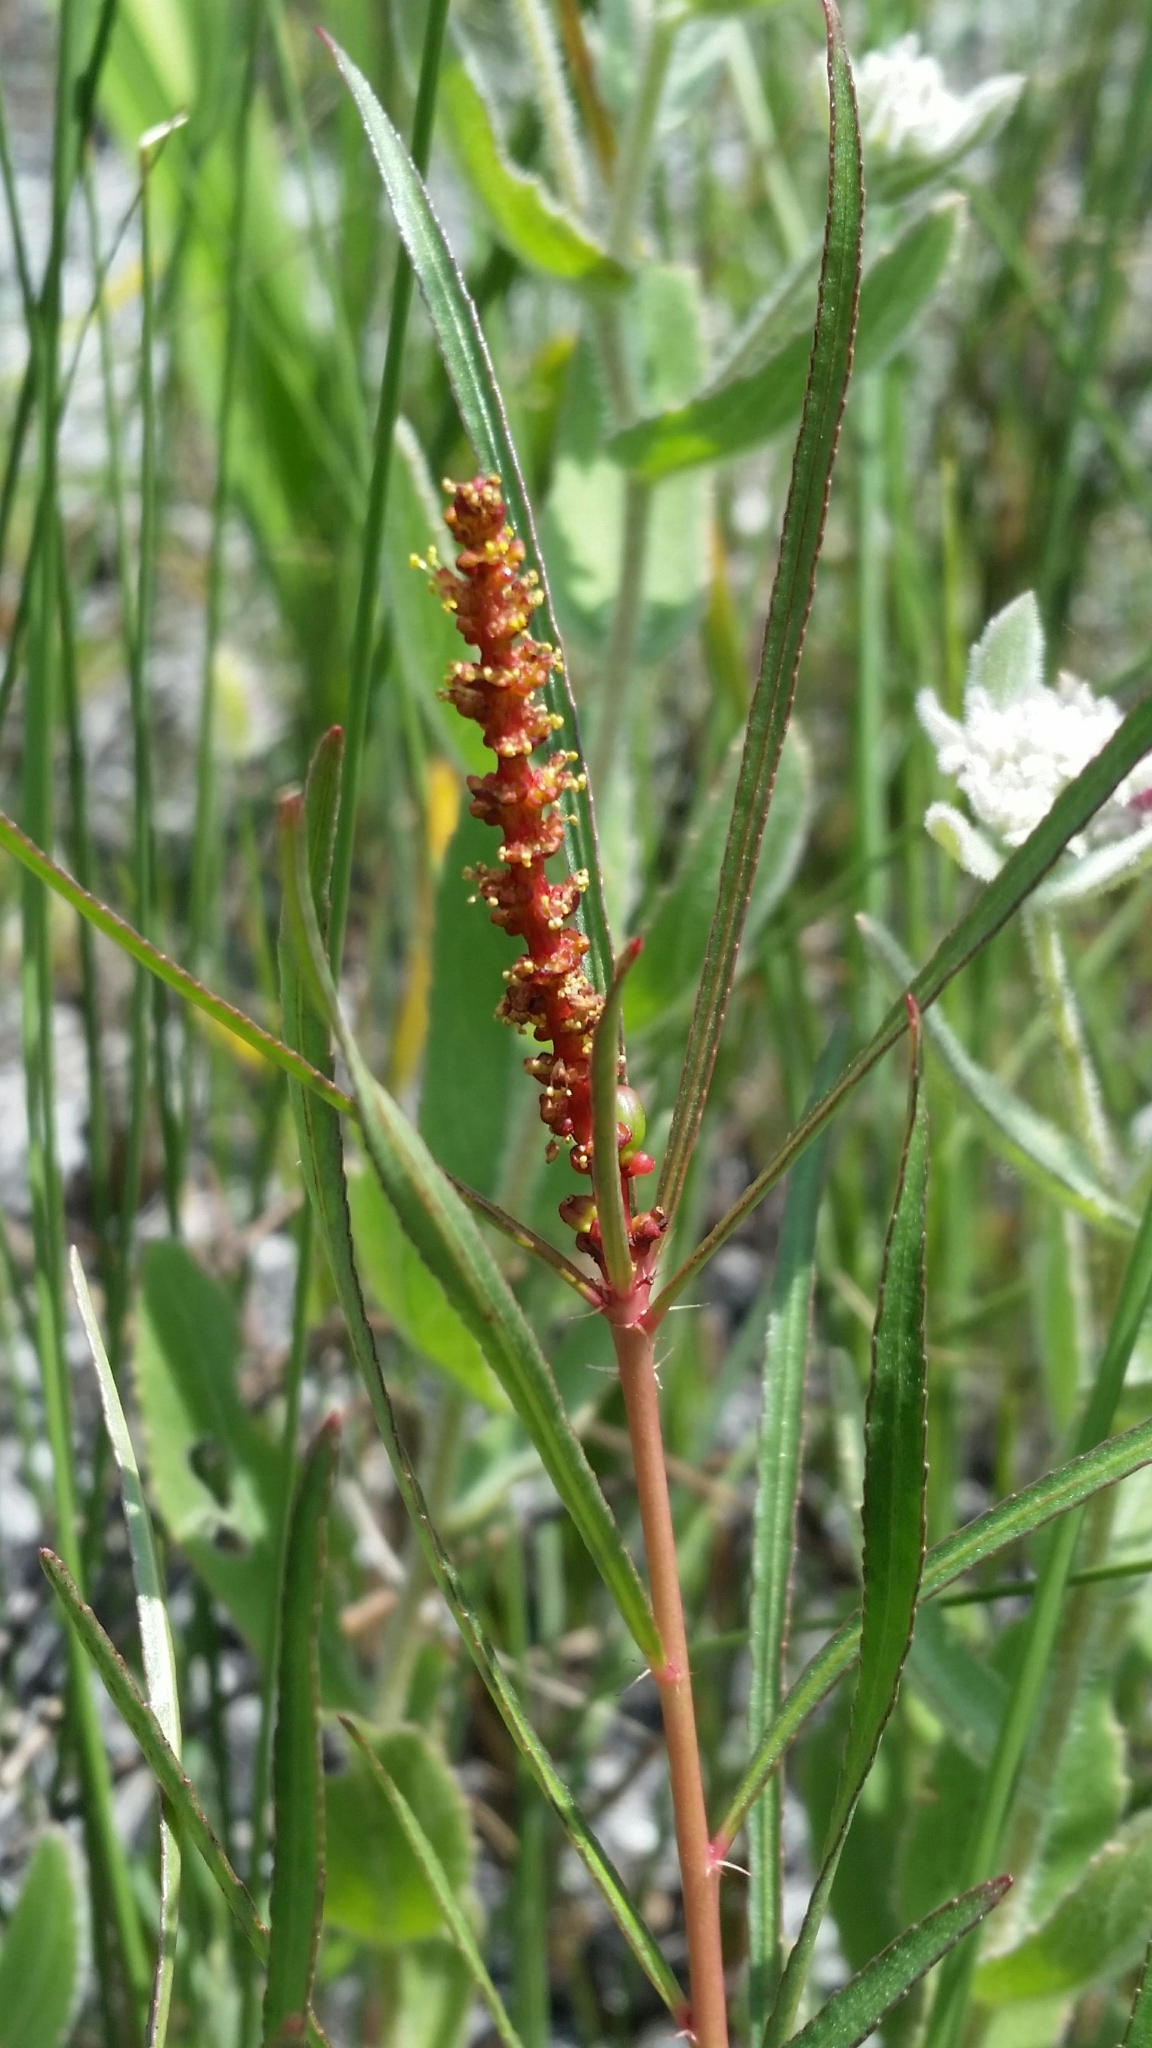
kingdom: Plantae
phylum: Tracheophyta
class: Magnoliopsida
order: Malpighiales
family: Euphorbiaceae
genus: Stillingia
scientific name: Stillingia sylvatica
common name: Queen's-delight
